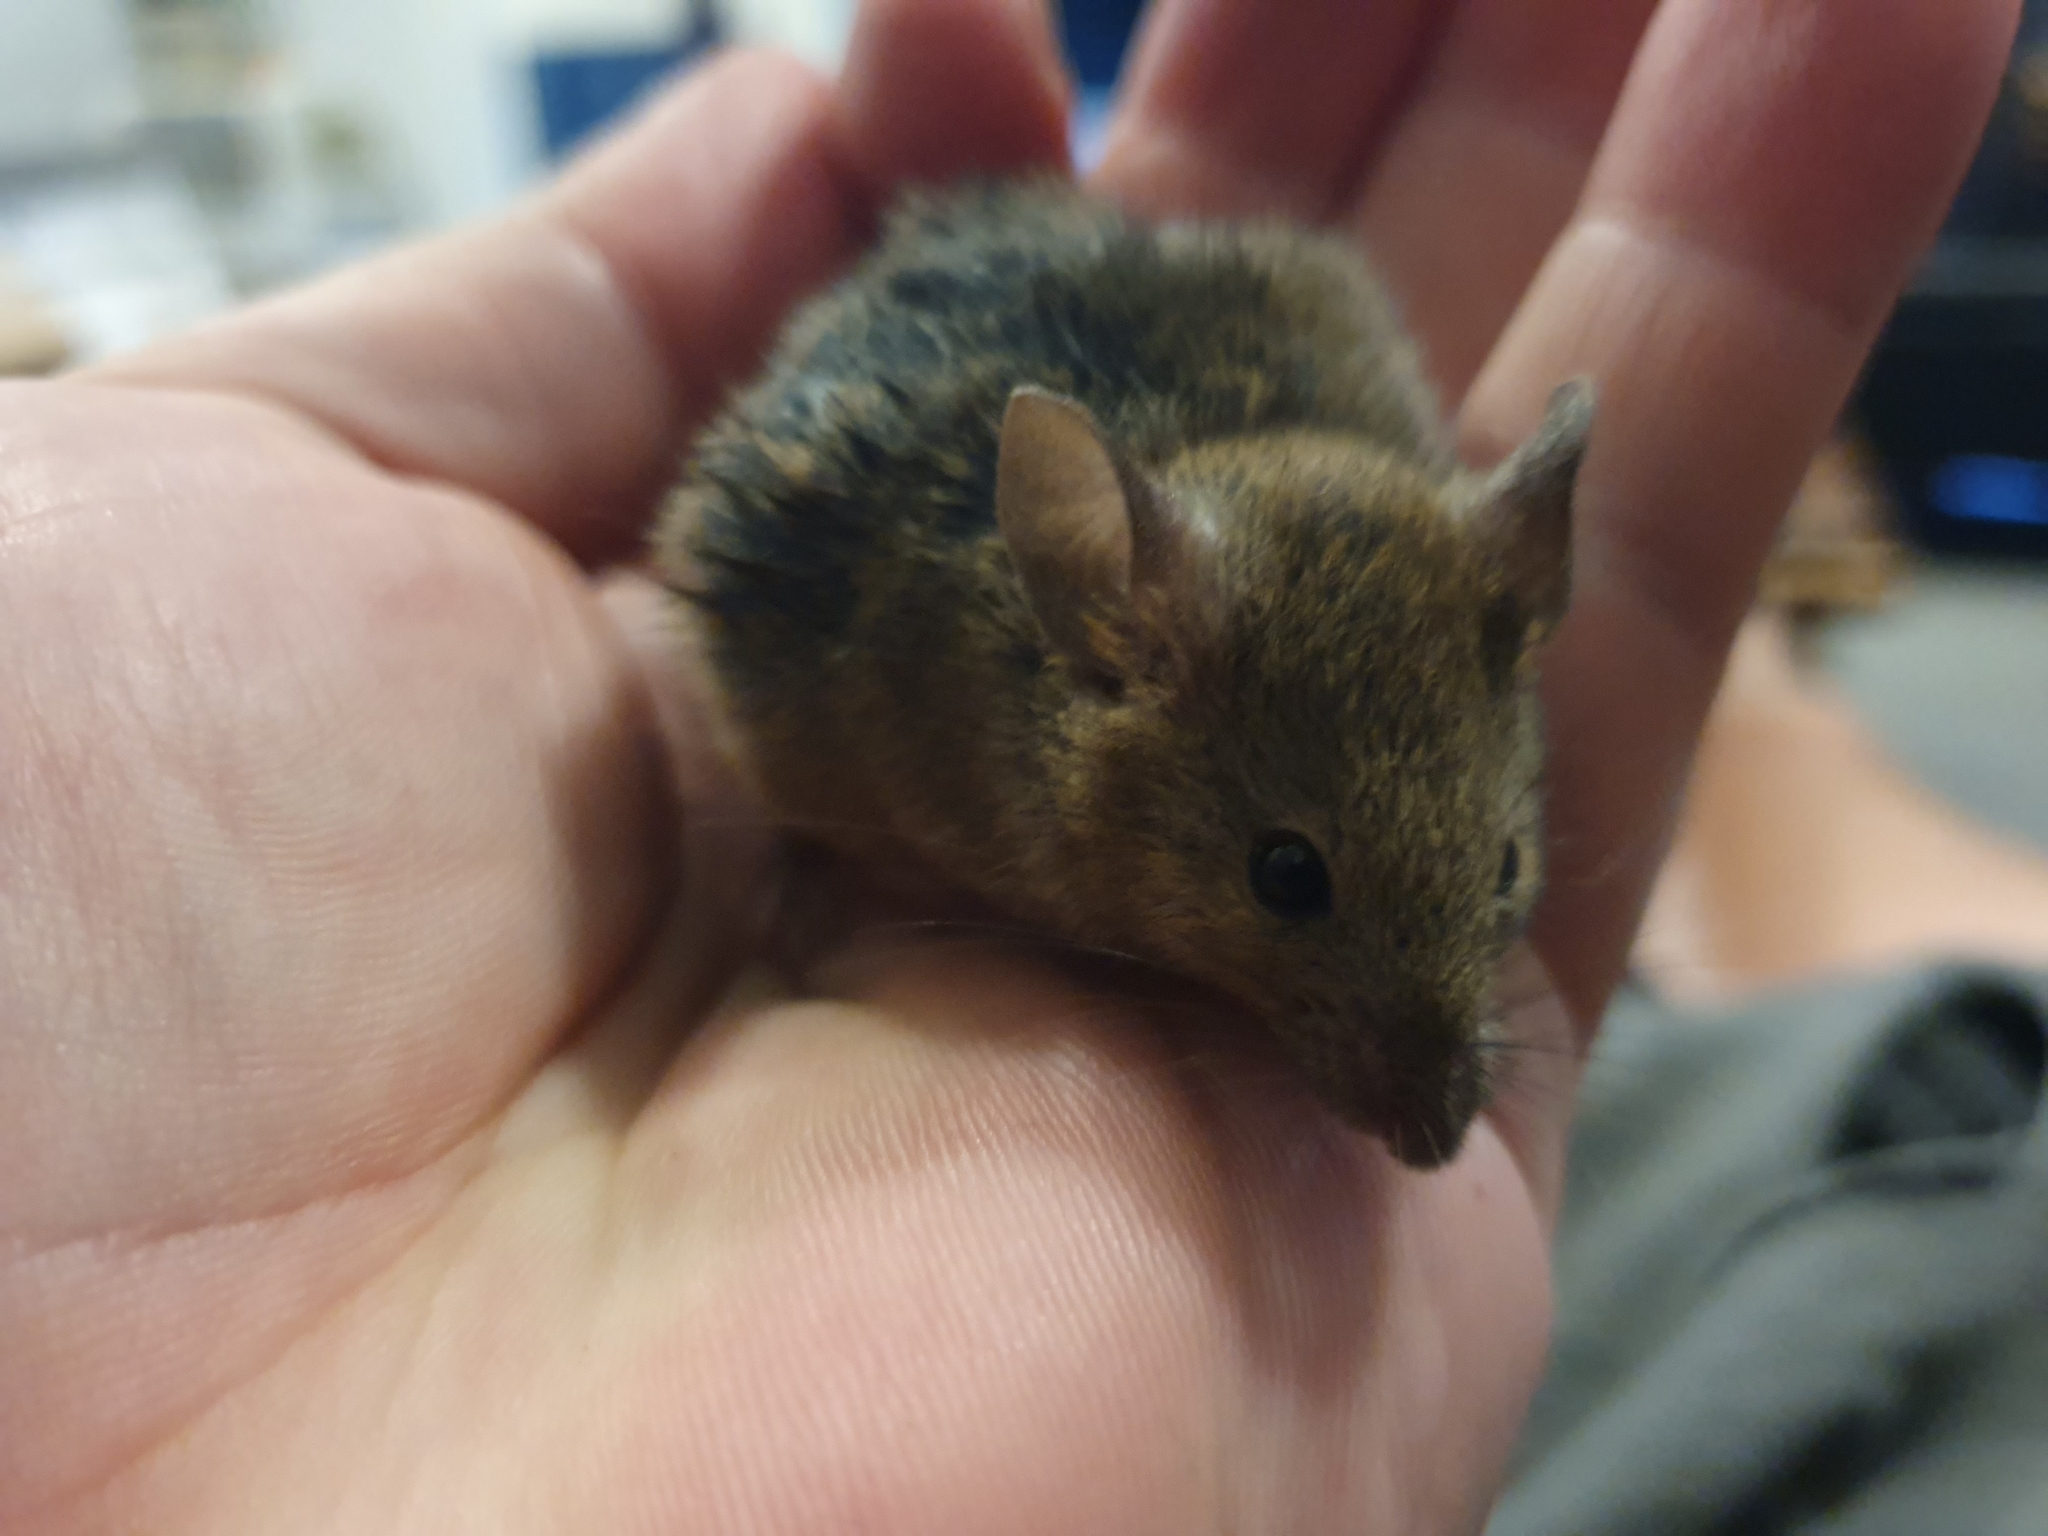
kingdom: Animalia
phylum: Chordata
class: Mammalia
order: Rodentia
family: Muridae
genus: Mus
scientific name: Mus musculus
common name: House mouse
